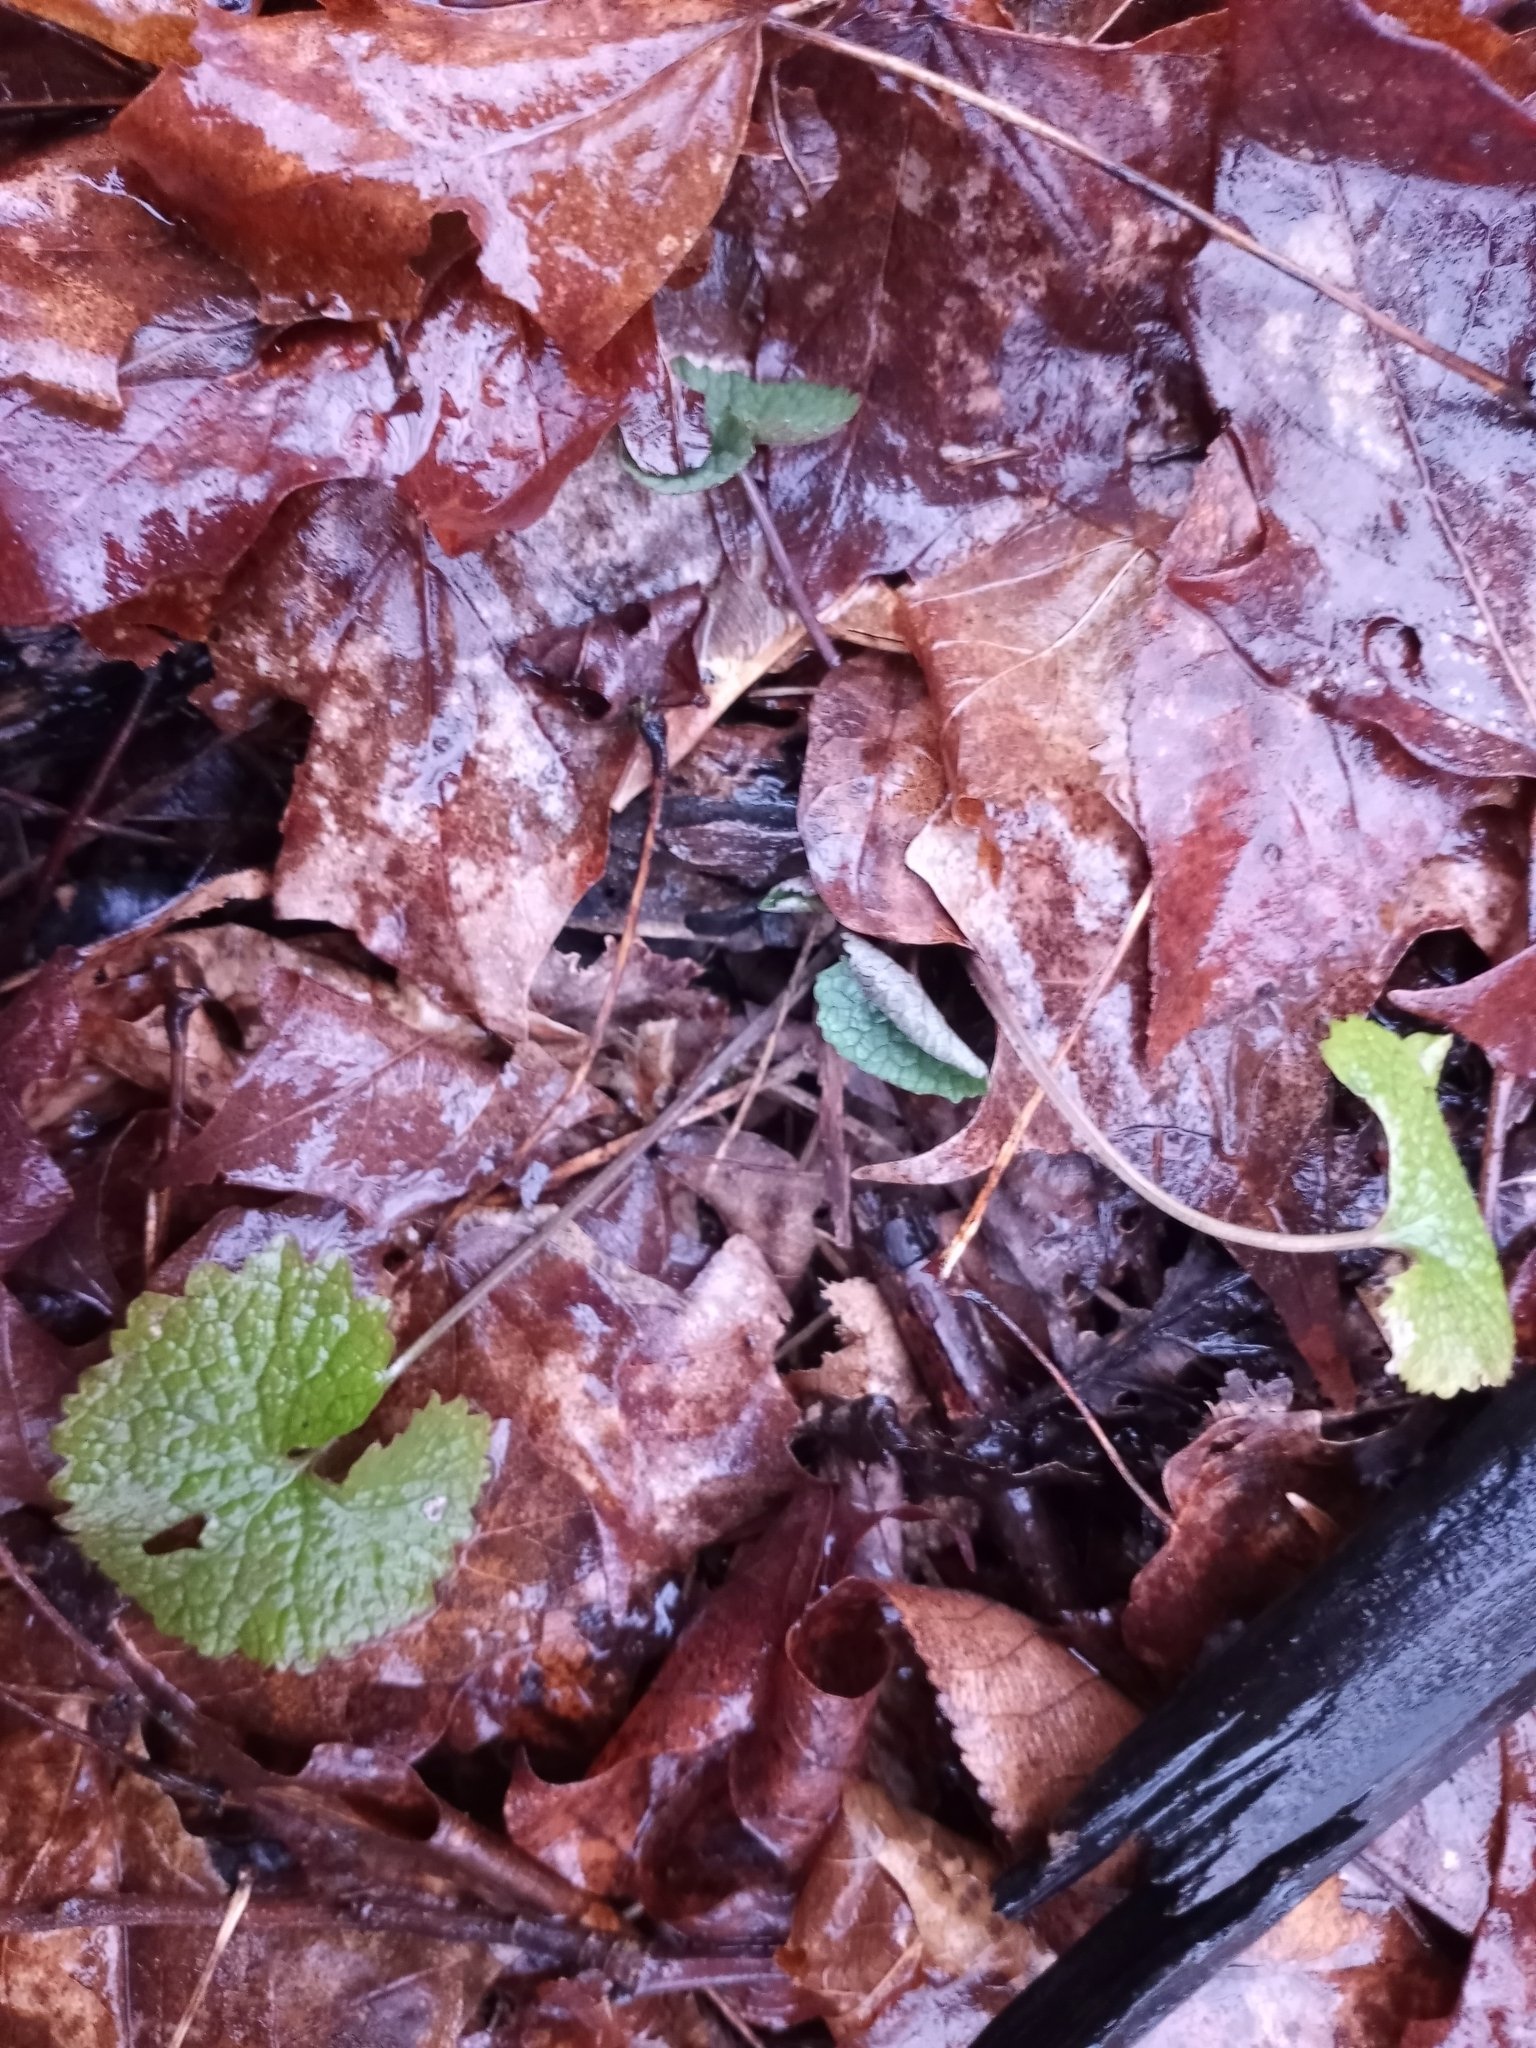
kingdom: Plantae
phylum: Tracheophyta
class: Magnoliopsida
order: Brassicales
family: Brassicaceae
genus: Alliaria
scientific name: Alliaria petiolata
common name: Garlic mustard
